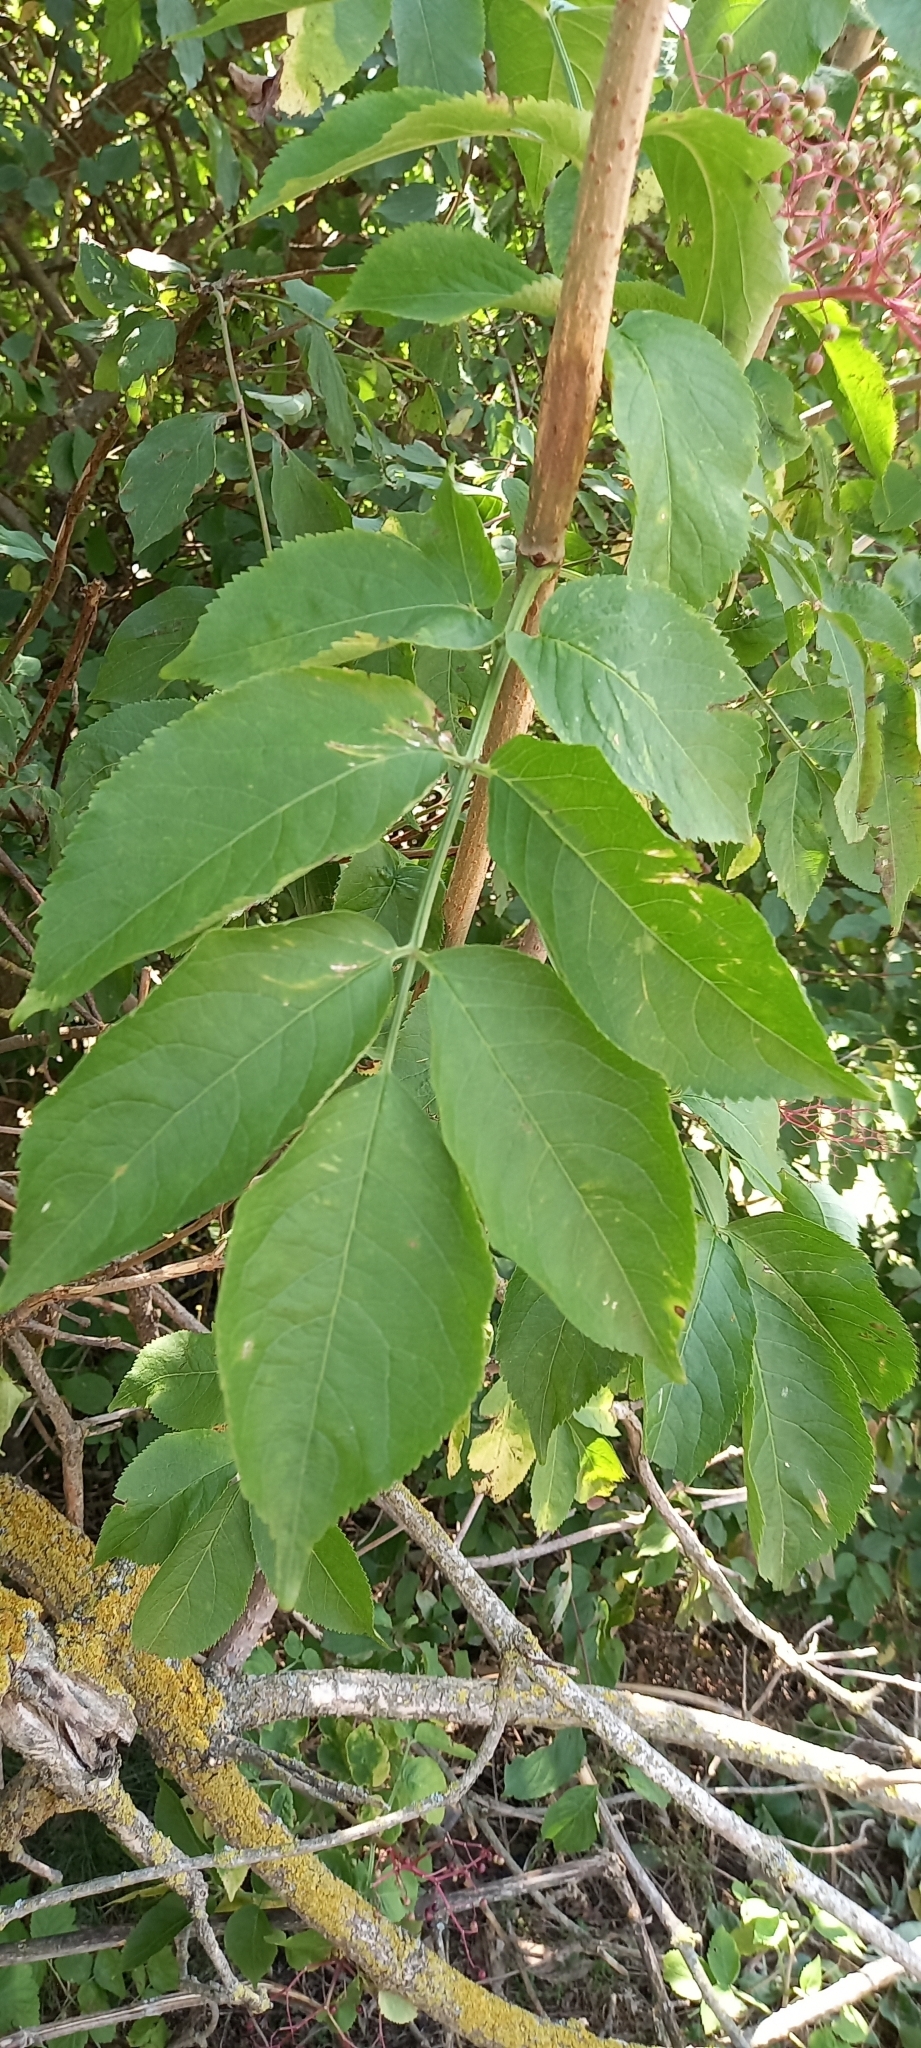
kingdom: Plantae
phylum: Tracheophyta
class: Magnoliopsida
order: Dipsacales
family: Viburnaceae
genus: Sambucus
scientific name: Sambucus nigra
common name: Elder
